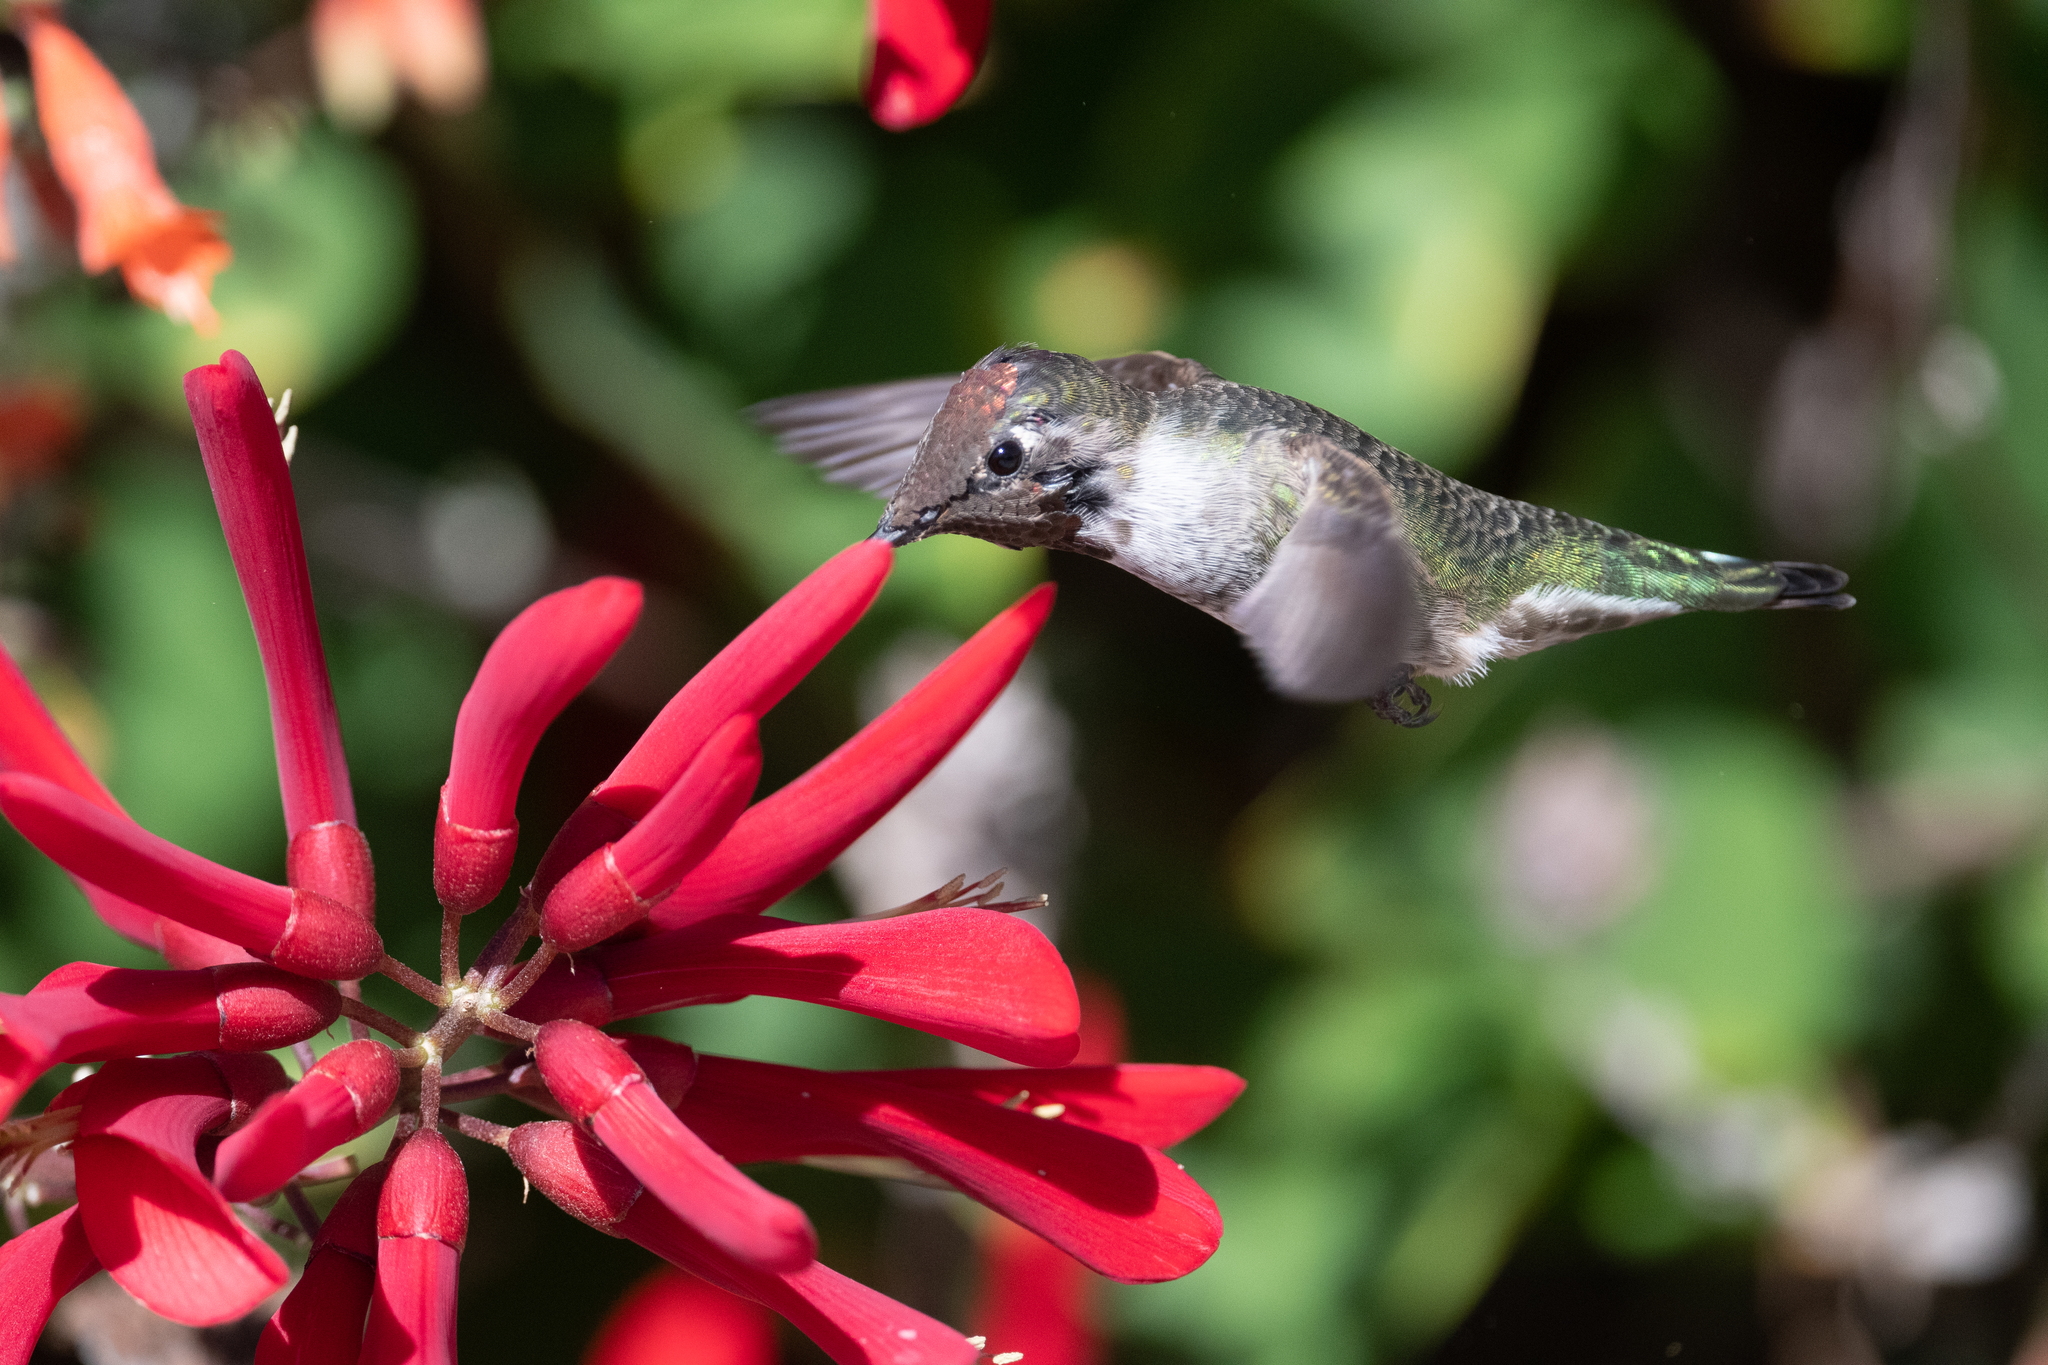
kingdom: Animalia
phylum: Chordata
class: Aves
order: Apodiformes
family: Trochilidae
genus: Calypte
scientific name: Calypte anna
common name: Anna's hummingbird
